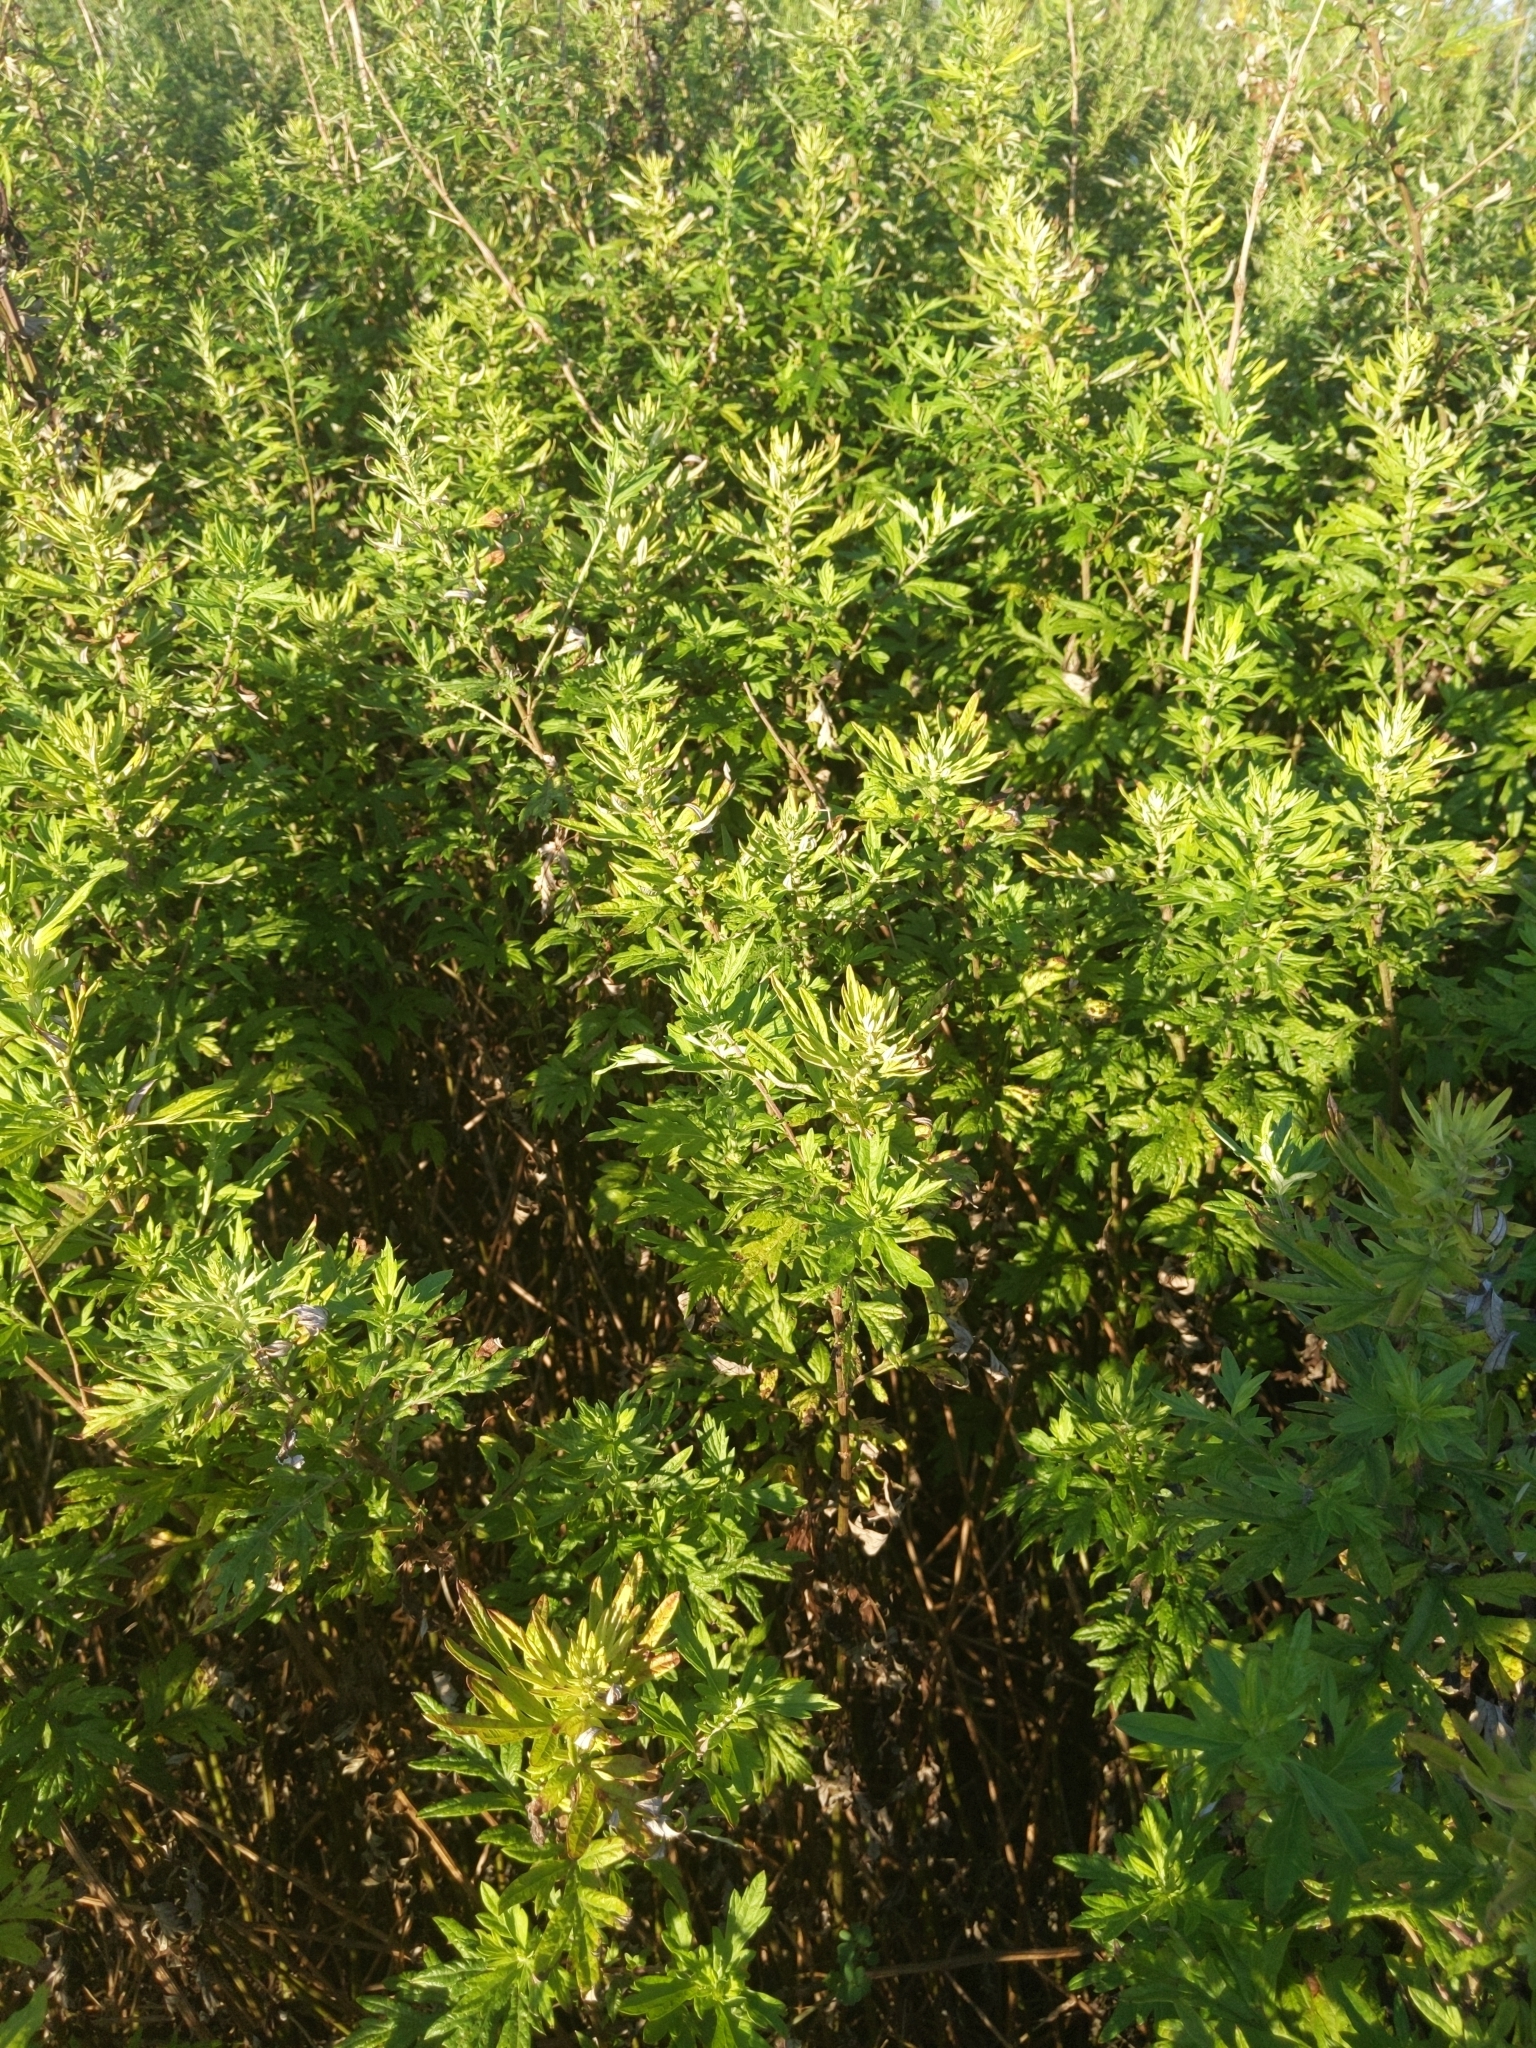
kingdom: Plantae
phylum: Tracheophyta
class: Magnoliopsida
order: Asterales
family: Asteraceae
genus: Artemisia
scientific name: Artemisia vulgaris
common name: Mugwort
